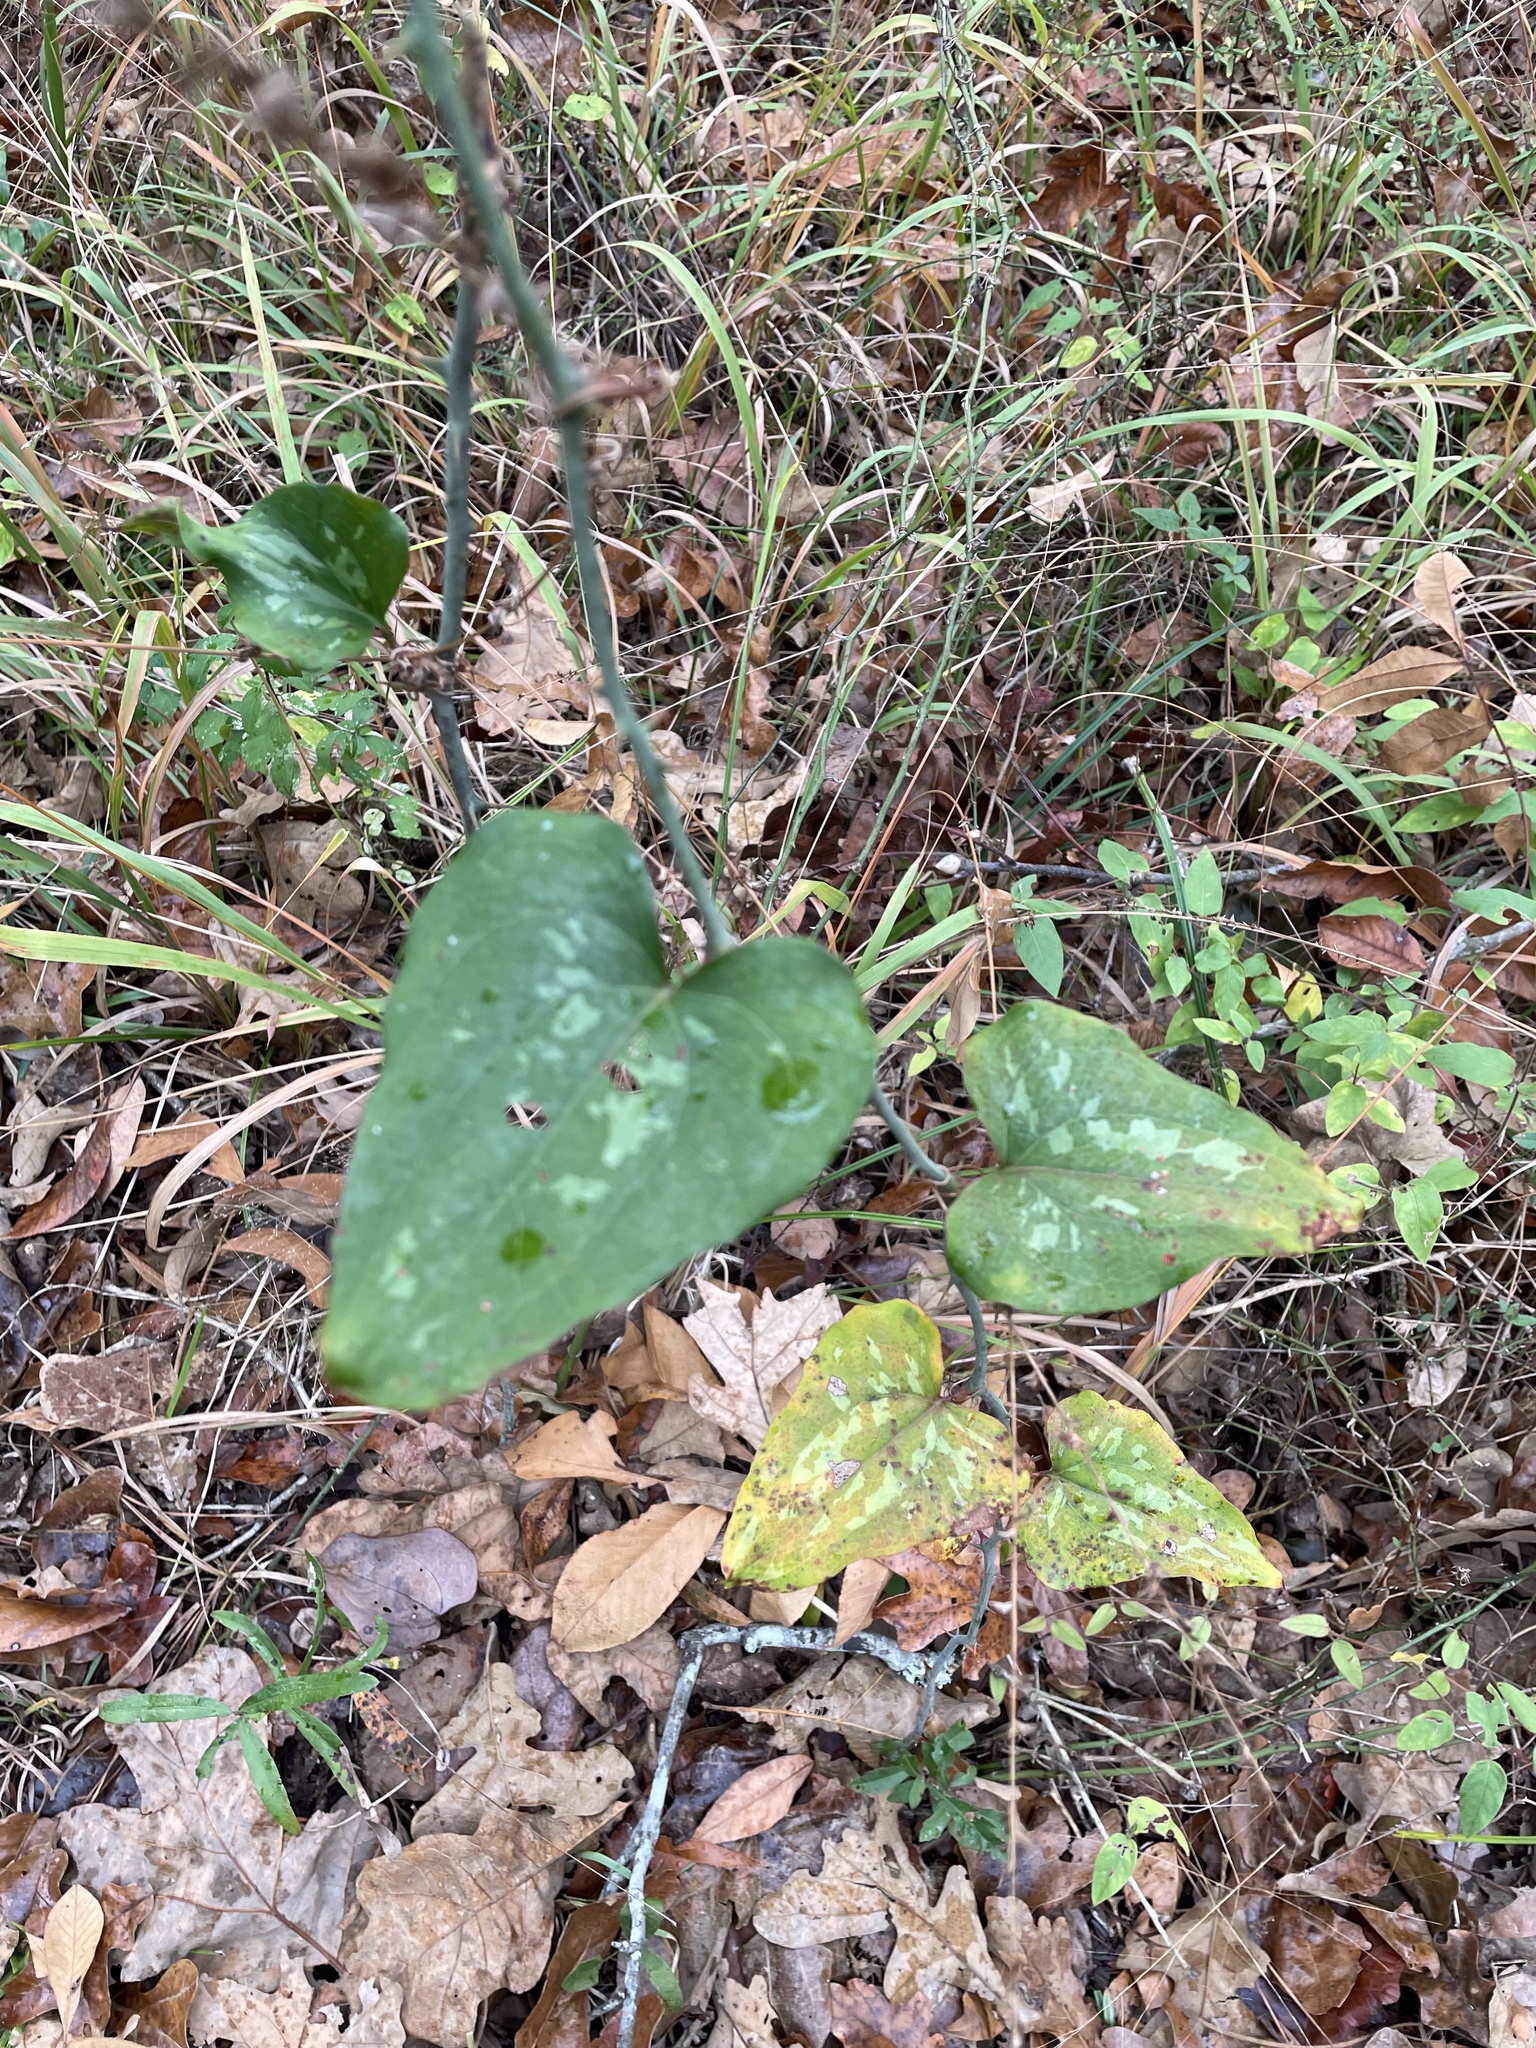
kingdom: Plantae
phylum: Tracheophyta
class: Liliopsida
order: Liliales
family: Smilacaceae
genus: Smilax
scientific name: Smilax bona-nox
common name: Catbrier
